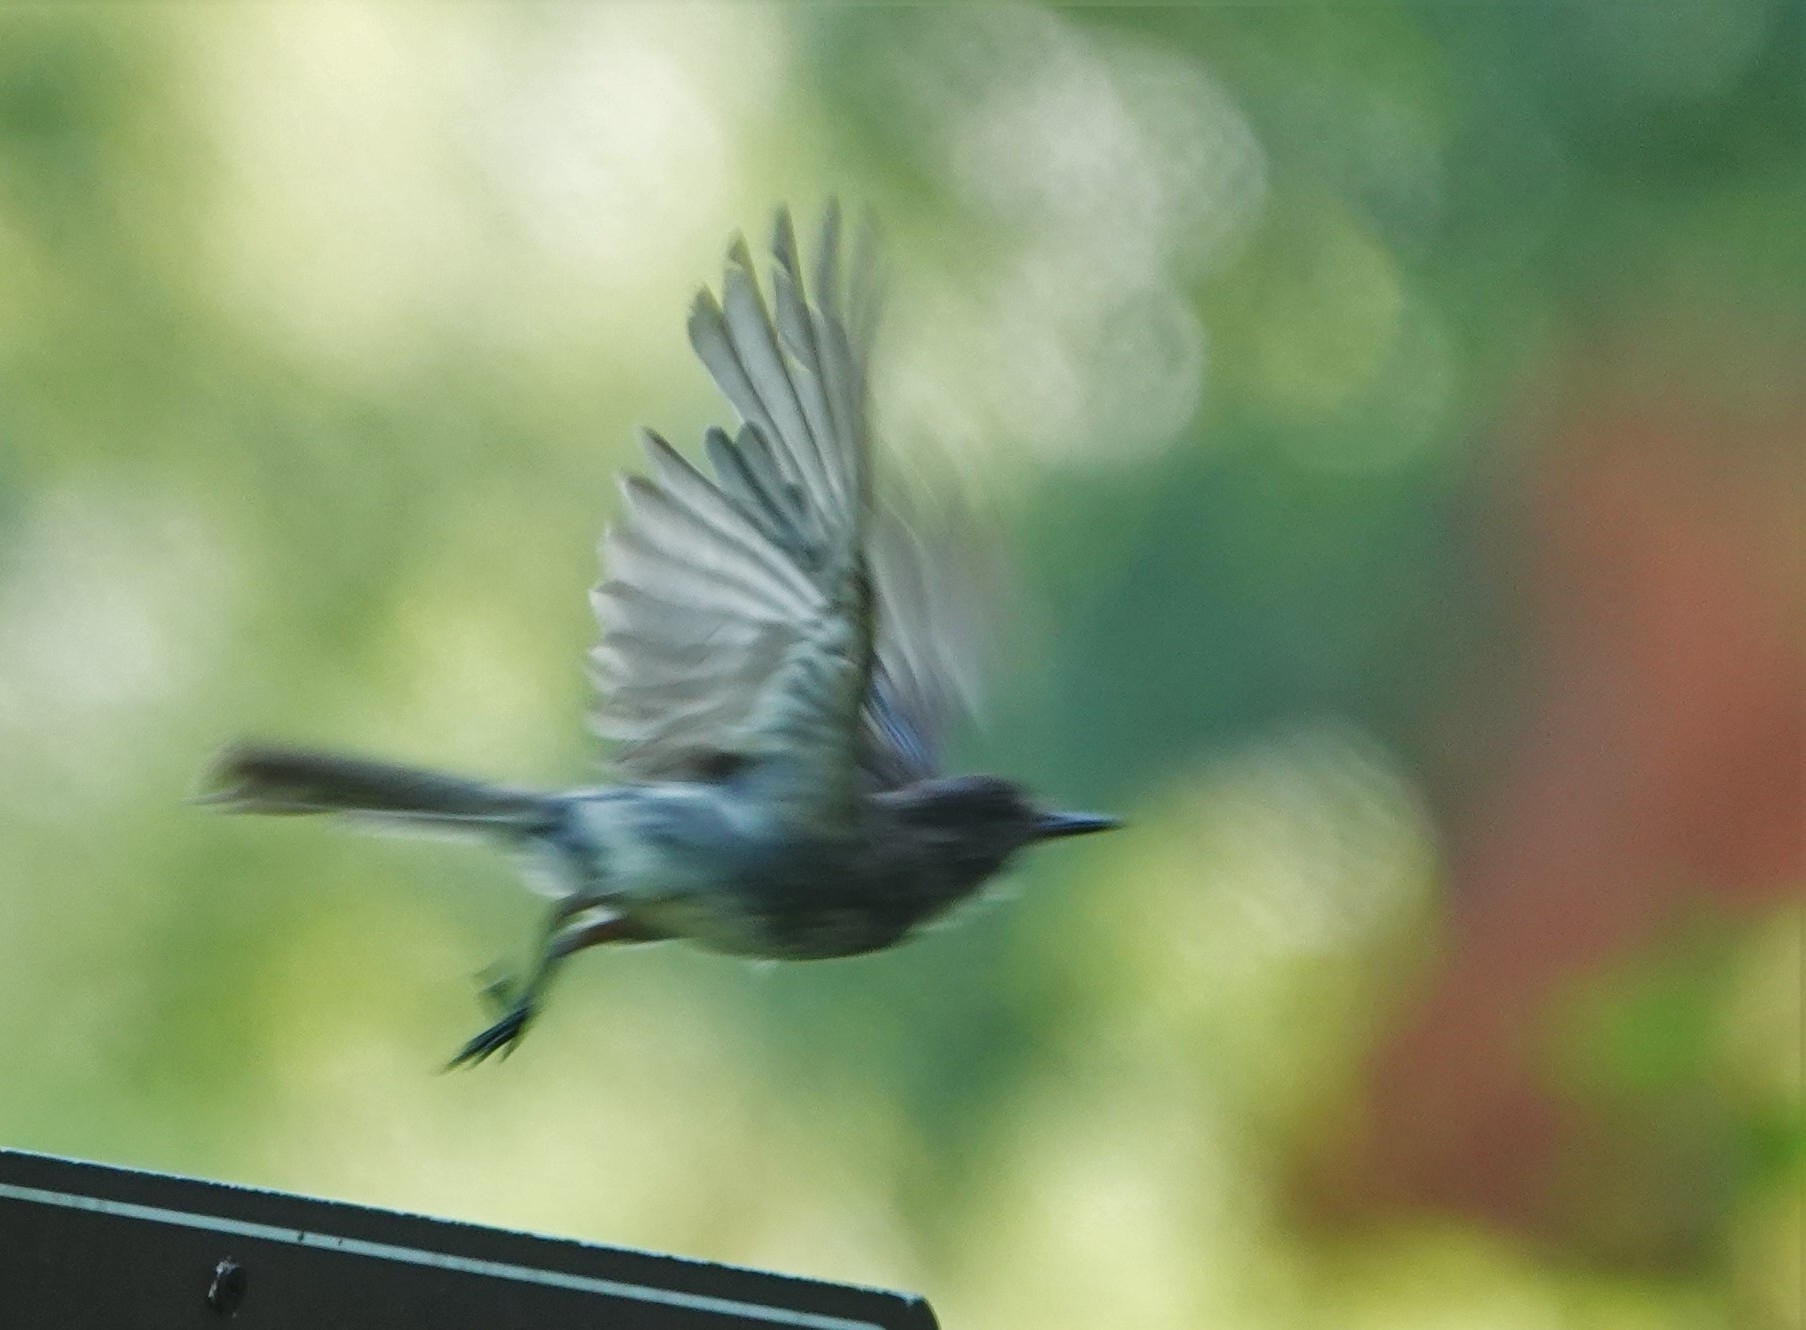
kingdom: Animalia
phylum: Chordata
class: Aves
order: Passeriformes
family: Tyrannidae
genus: Sayornis
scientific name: Sayornis phoebe
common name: Eastern phoebe
